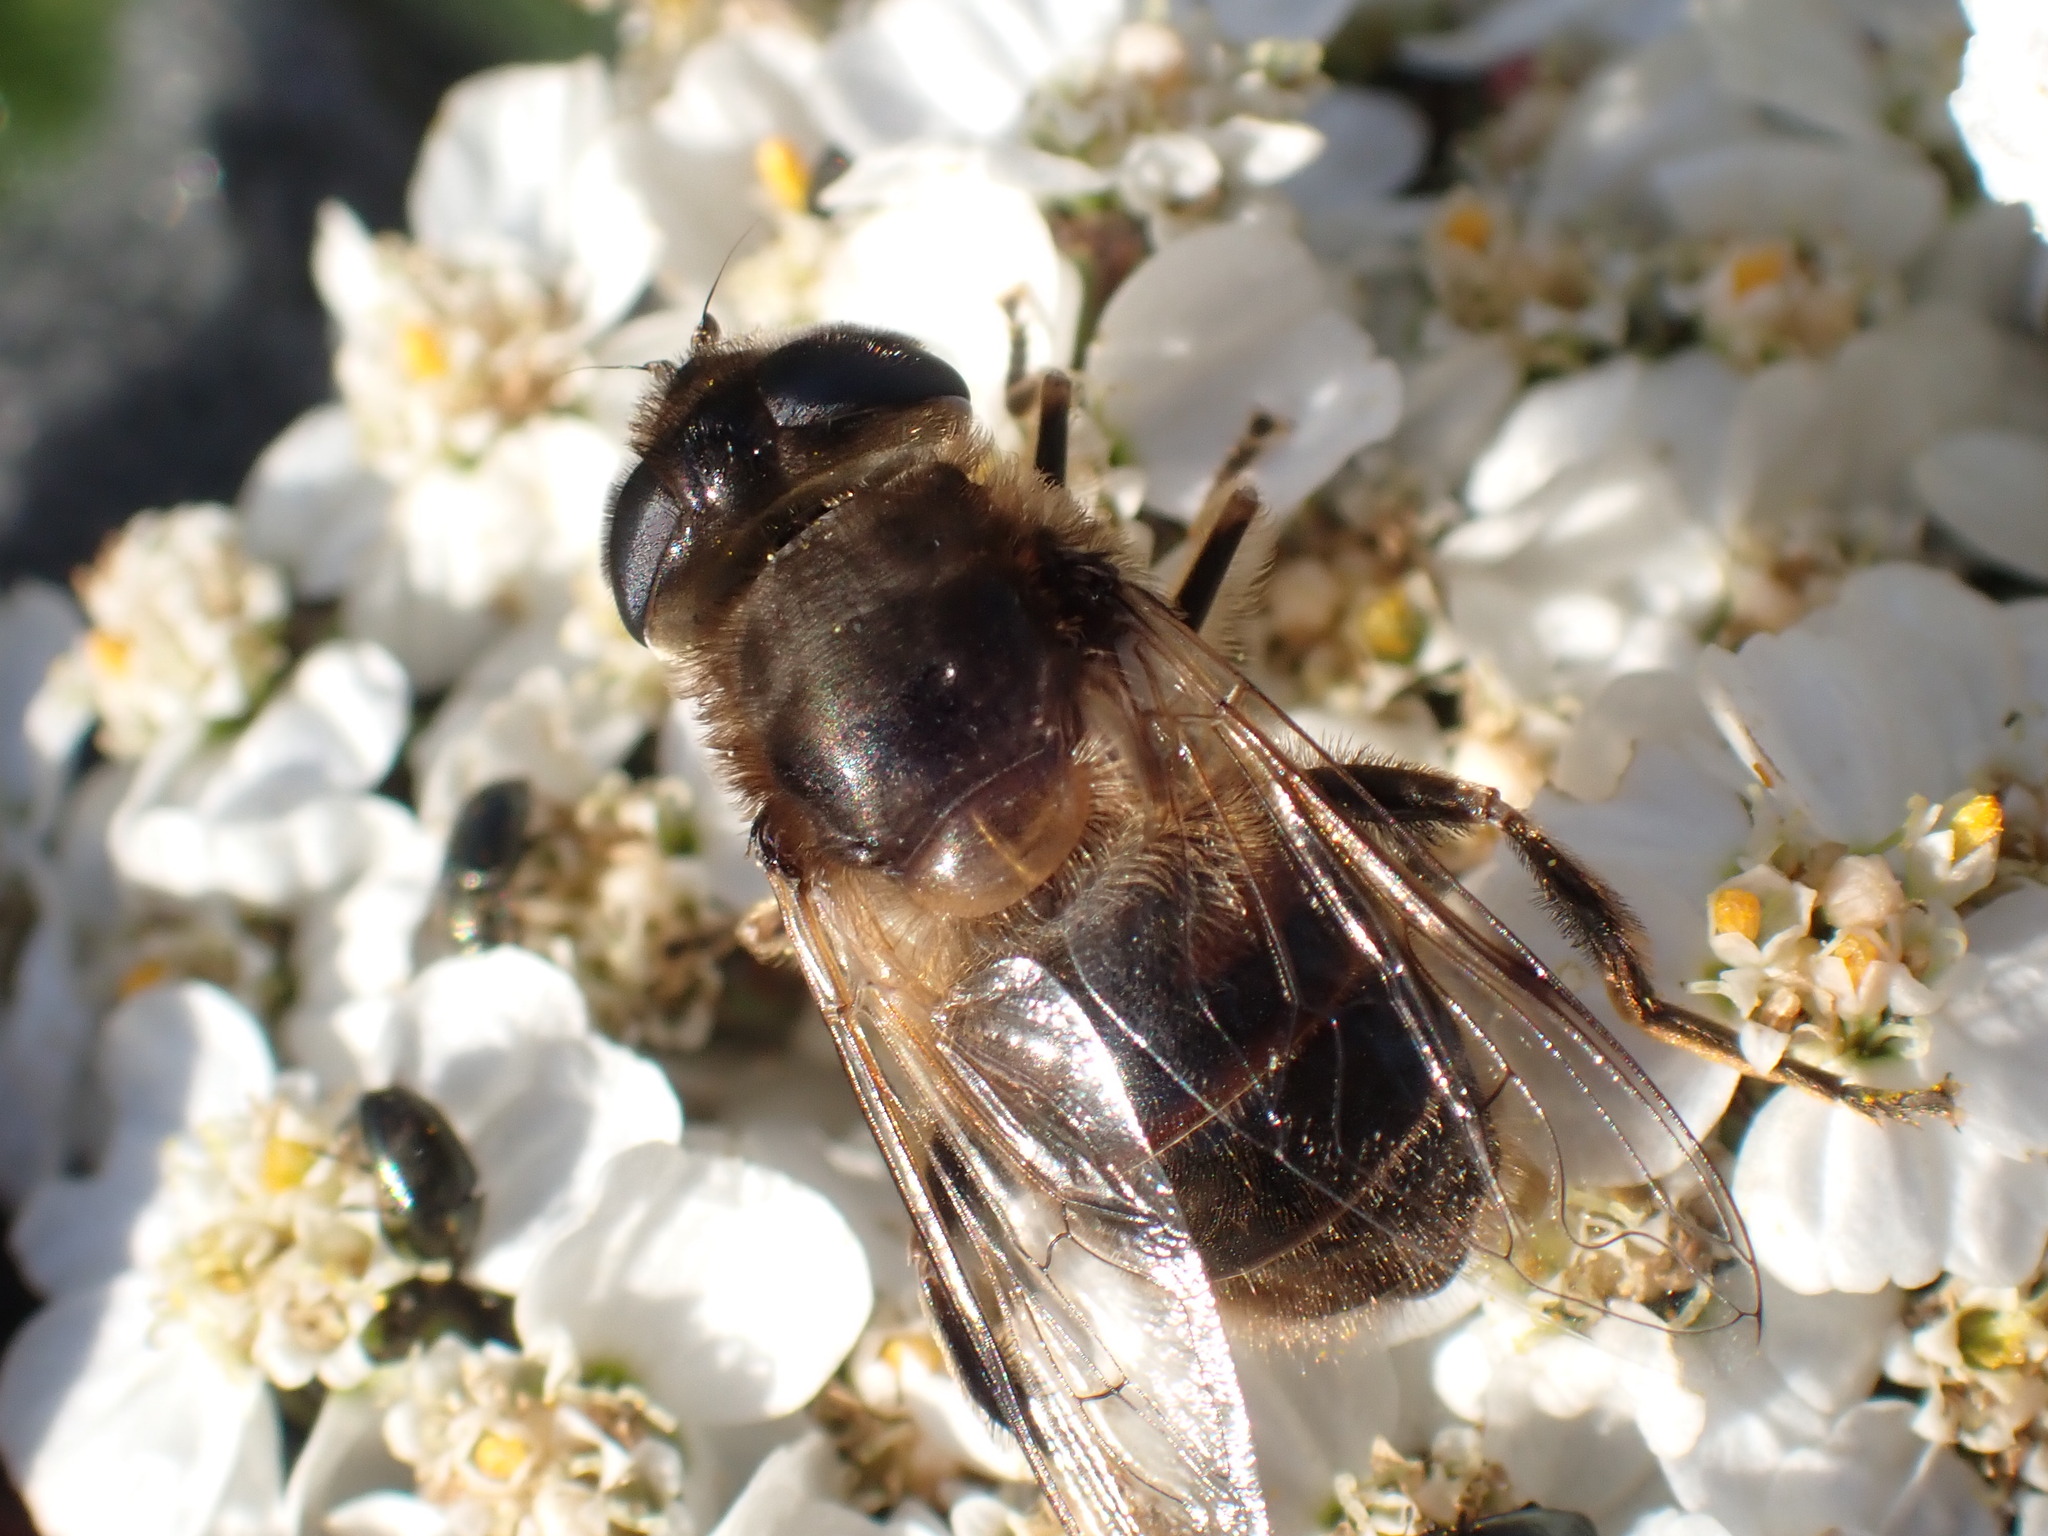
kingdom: Animalia
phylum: Arthropoda
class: Insecta
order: Diptera
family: Syrphidae
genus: Eristalis
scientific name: Eristalis tenax
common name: Drone fly
